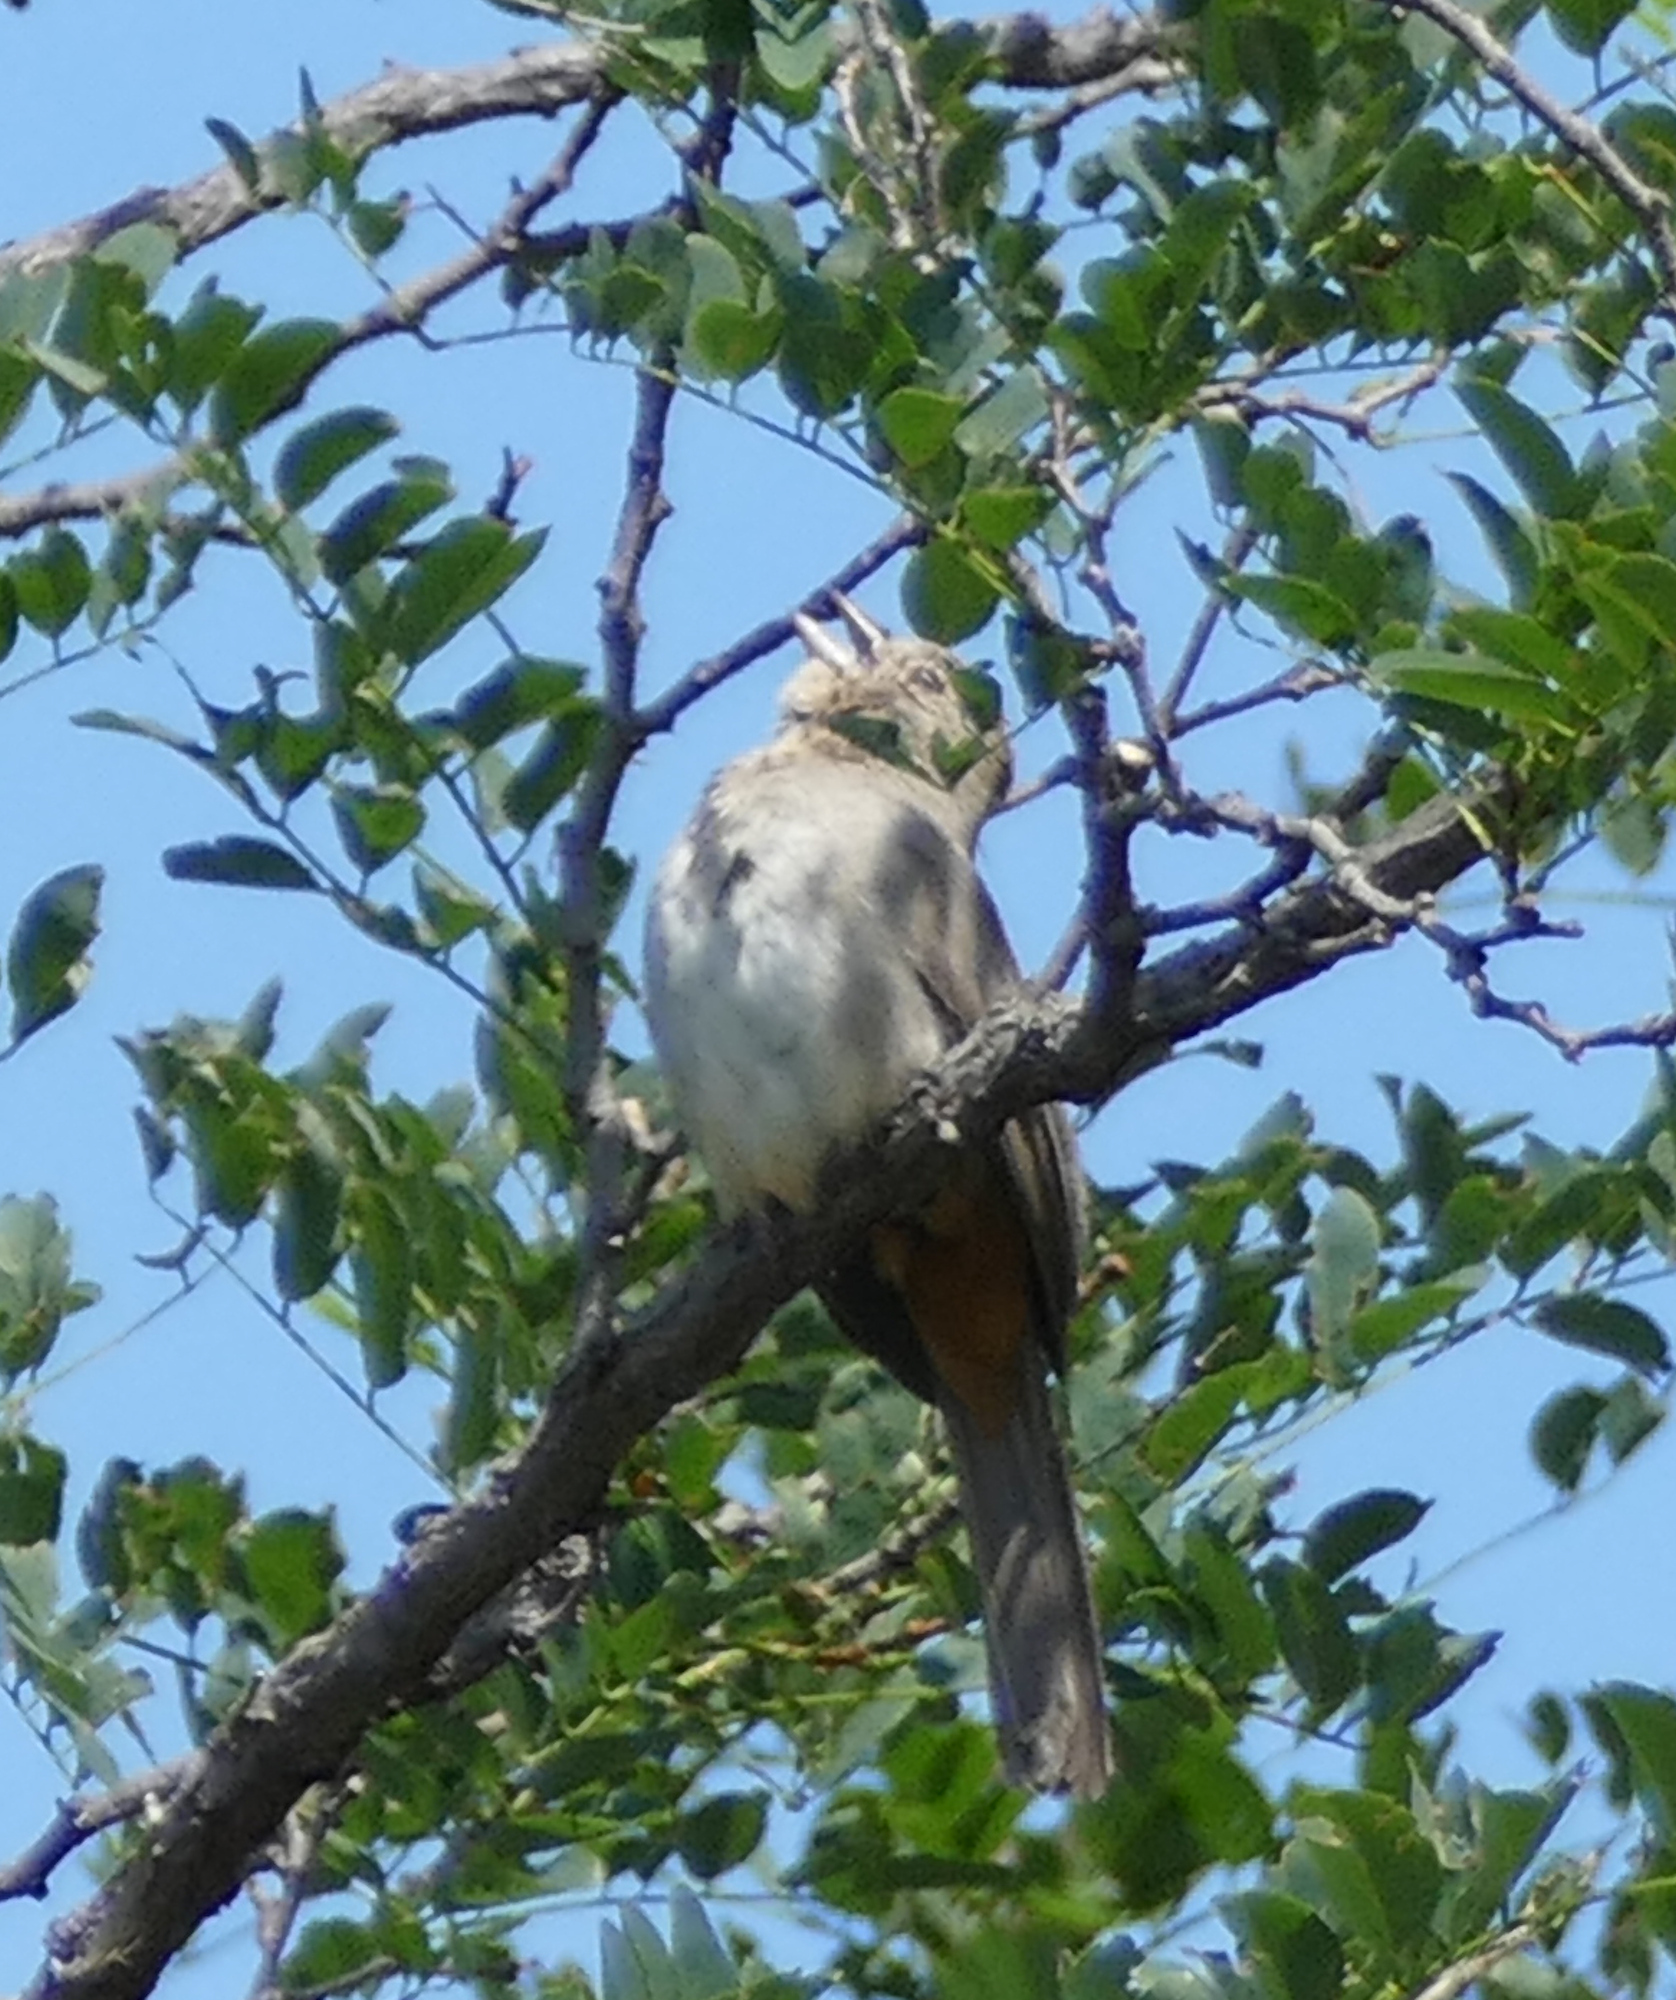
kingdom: Animalia
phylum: Chordata
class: Aves
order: Passeriformes
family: Passerellidae
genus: Melozone
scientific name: Melozone fusca
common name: Canyon towhee
